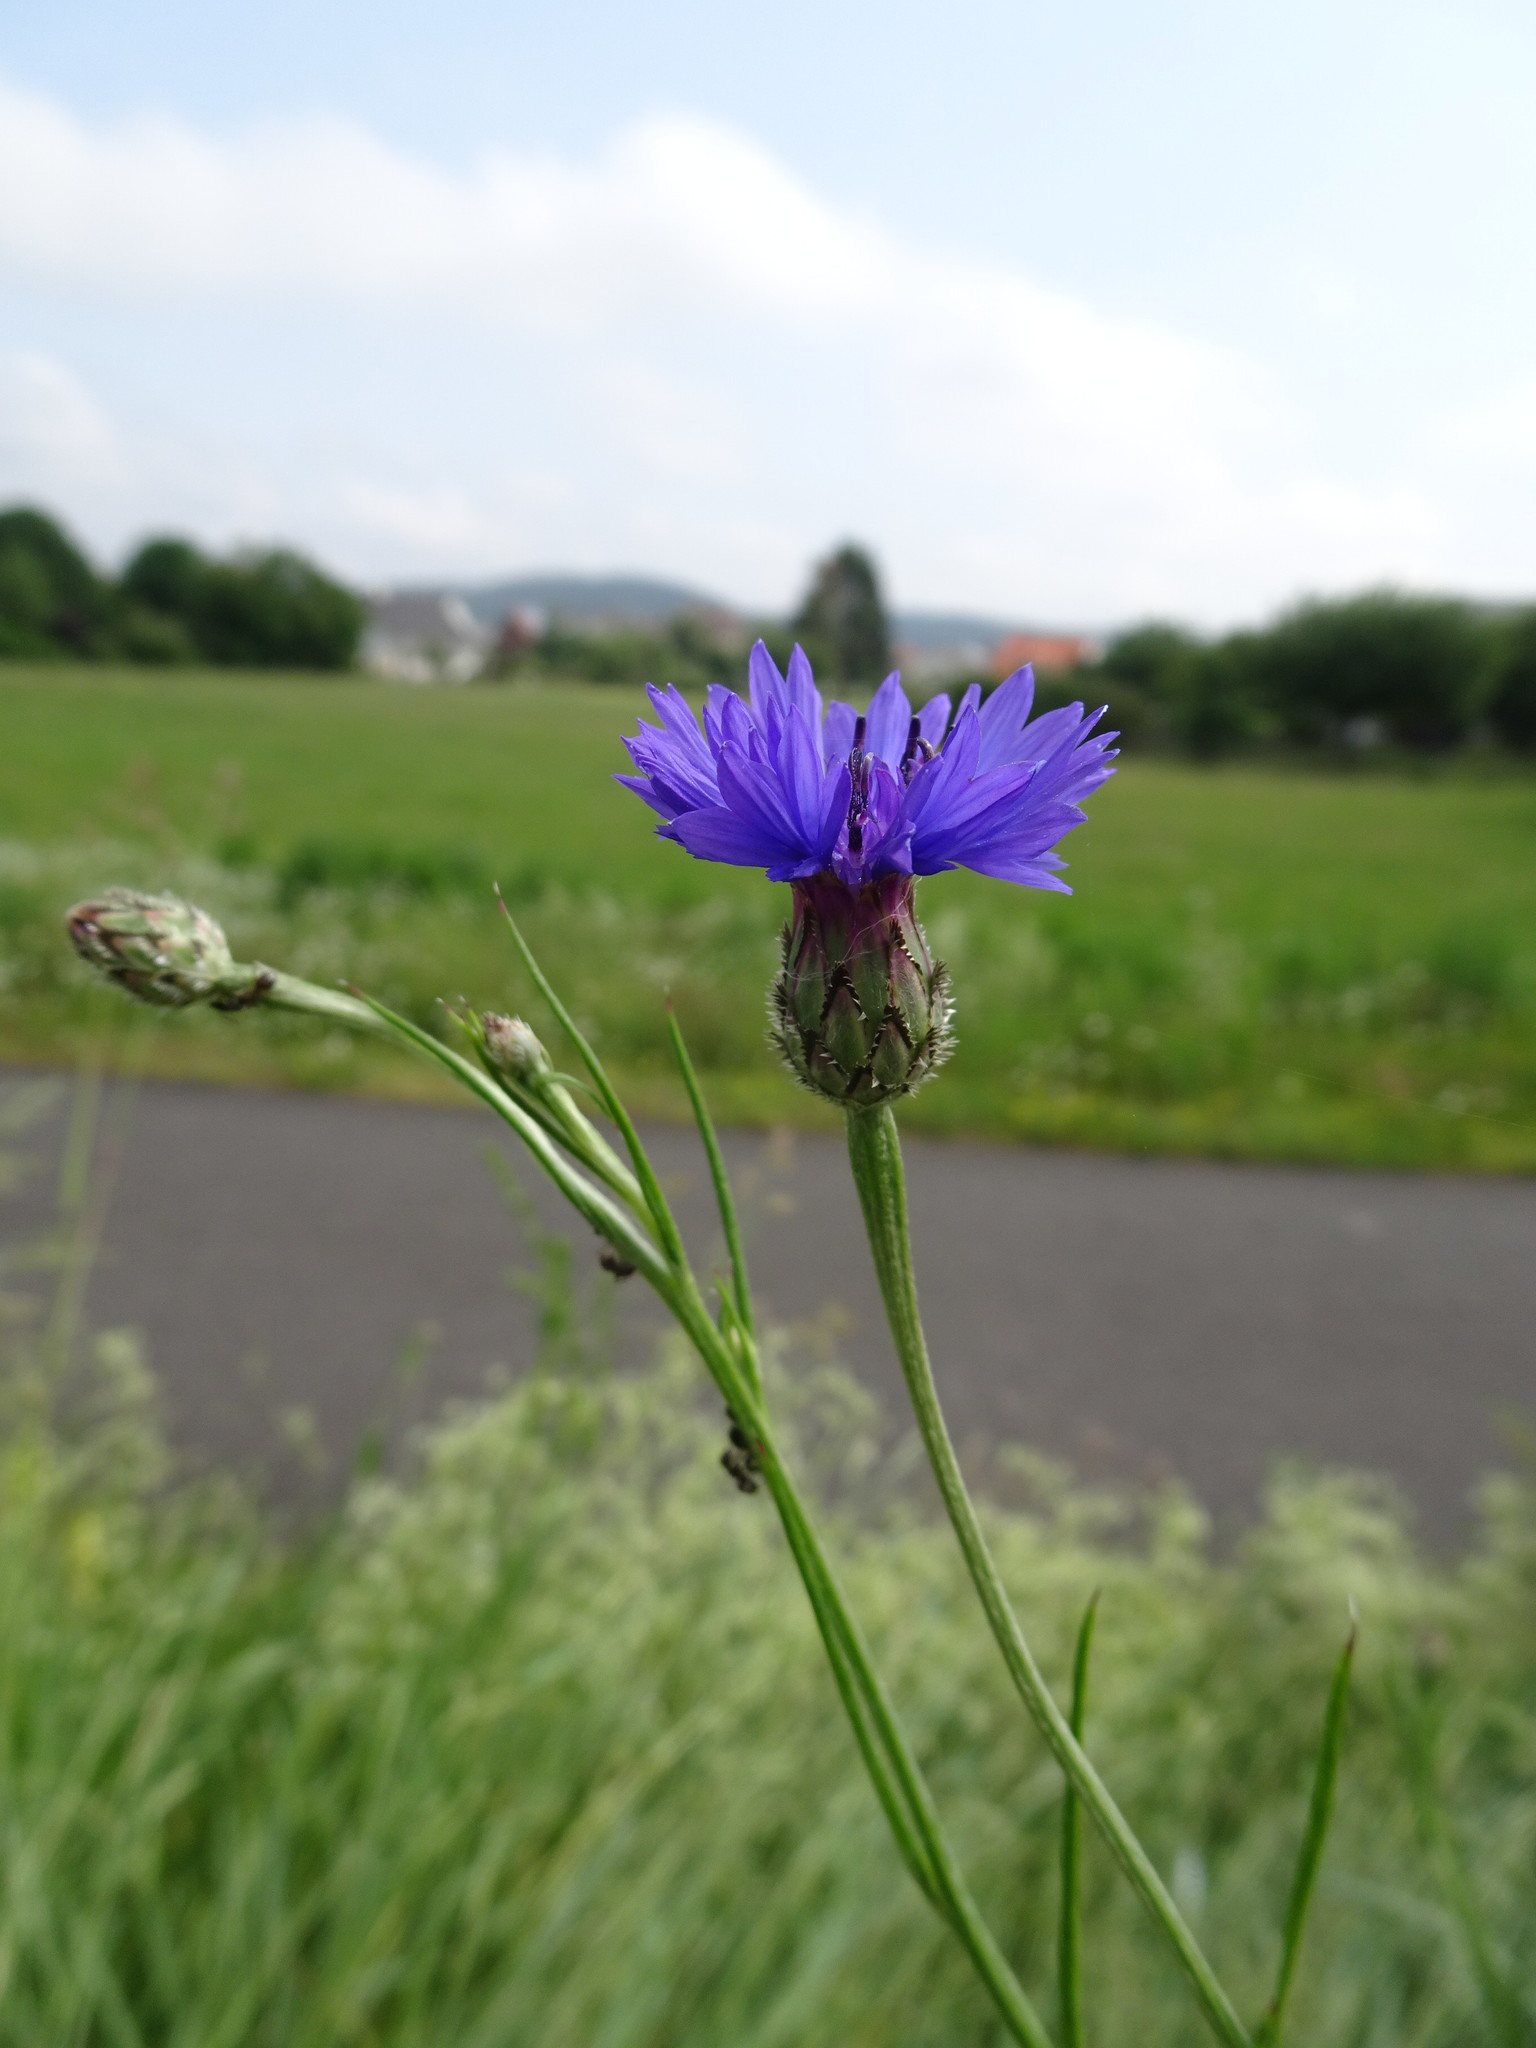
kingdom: Plantae
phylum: Tracheophyta
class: Magnoliopsida
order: Asterales
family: Asteraceae
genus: Centaurea
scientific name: Centaurea cyanus
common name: Cornflower
